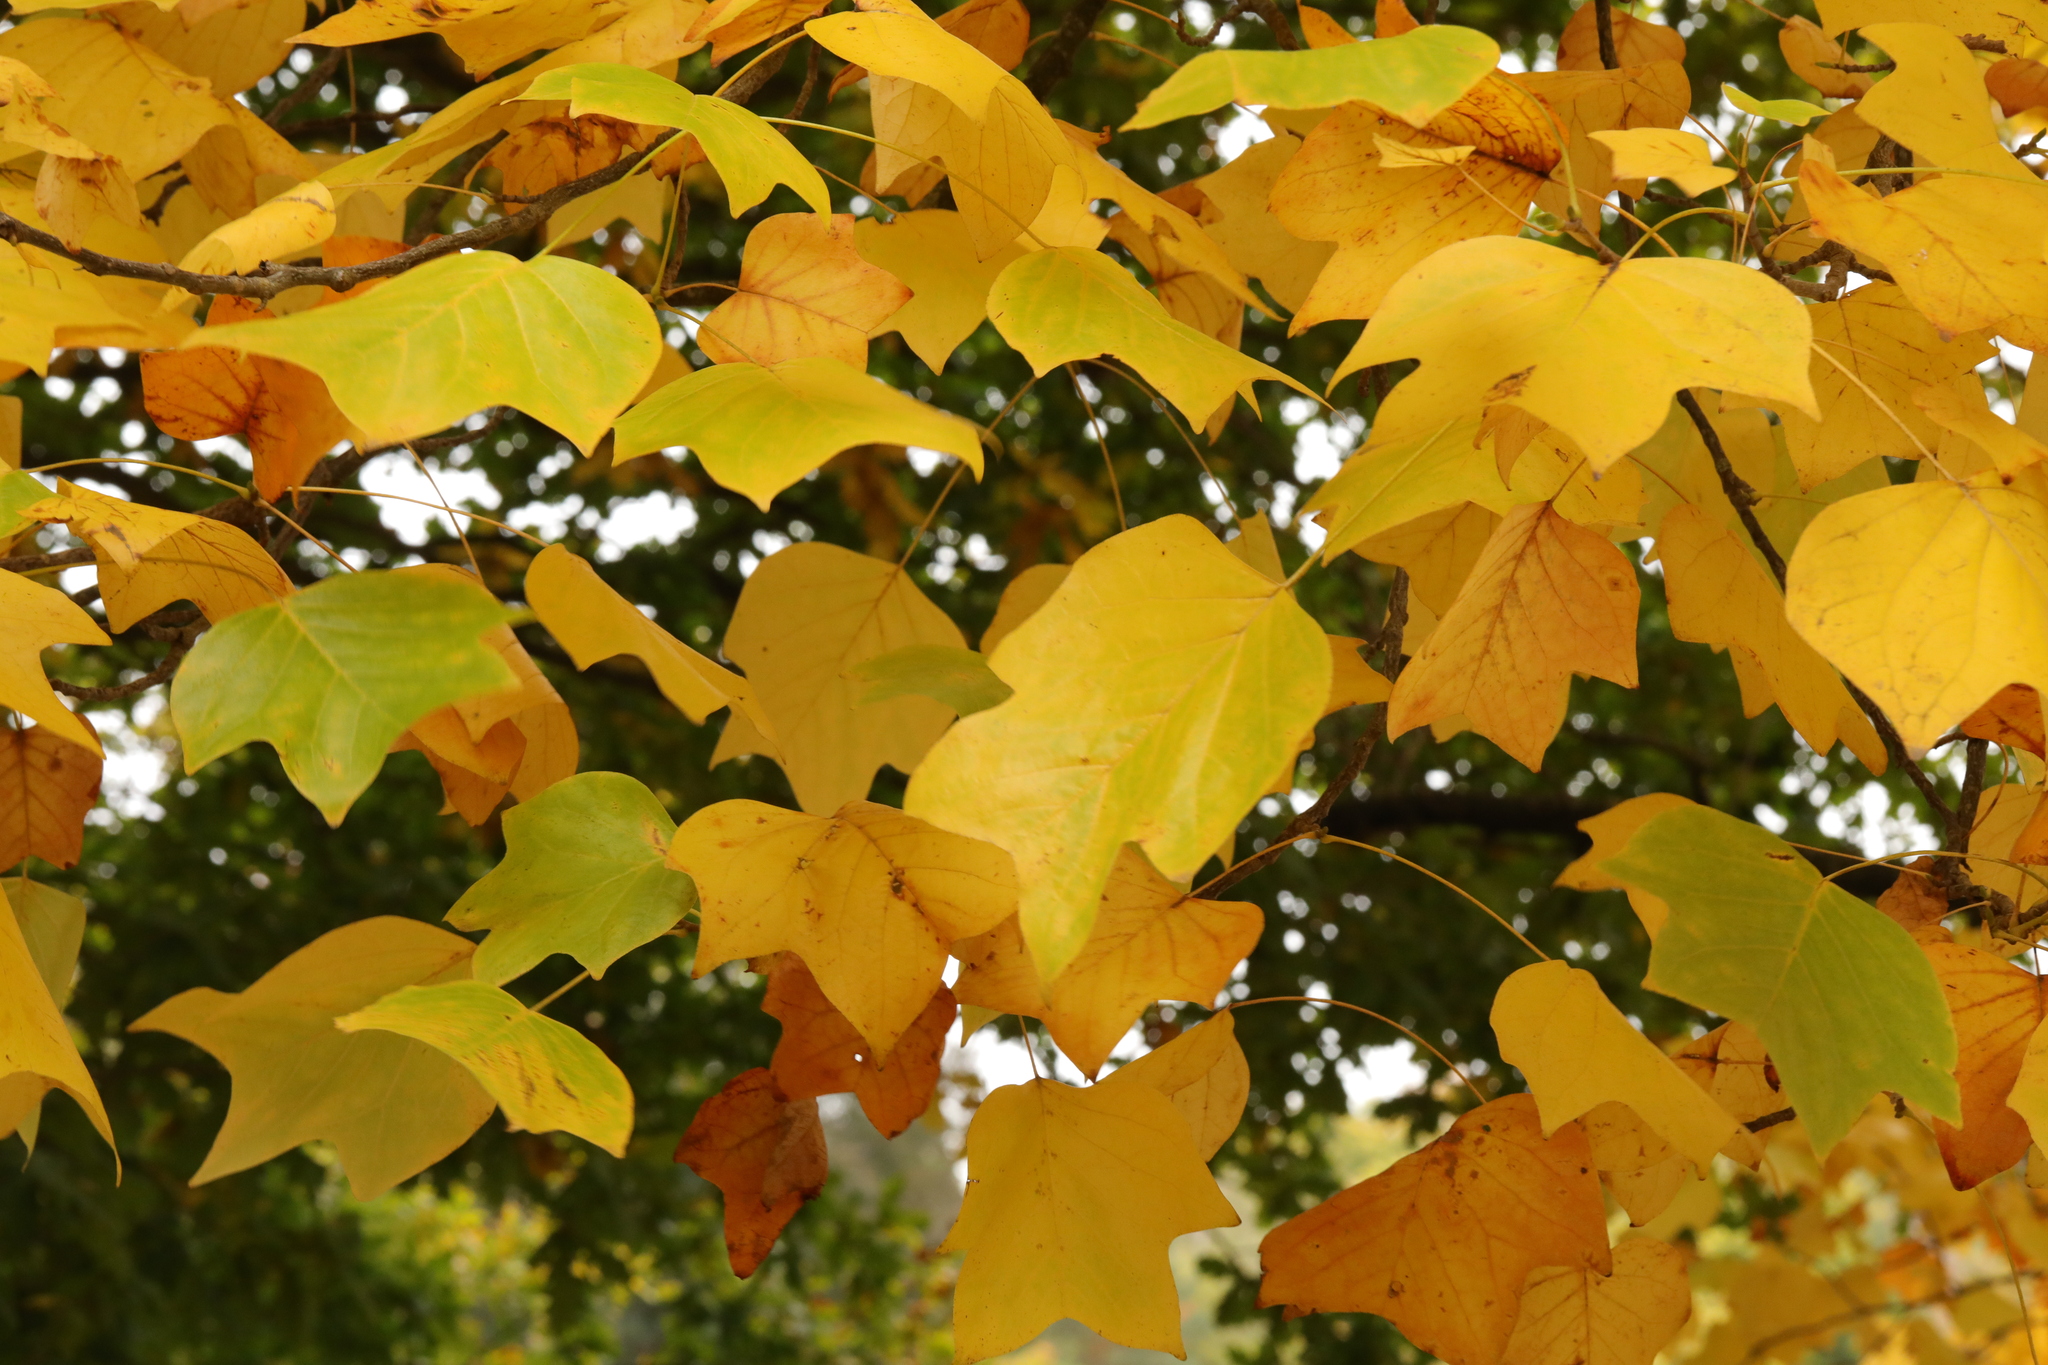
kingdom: Plantae
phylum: Tracheophyta
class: Magnoliopsida
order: Magnoliales
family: Magnoliaceae
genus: Liriodendron
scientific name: Liriodendron tulipifera
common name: Tulip tree
